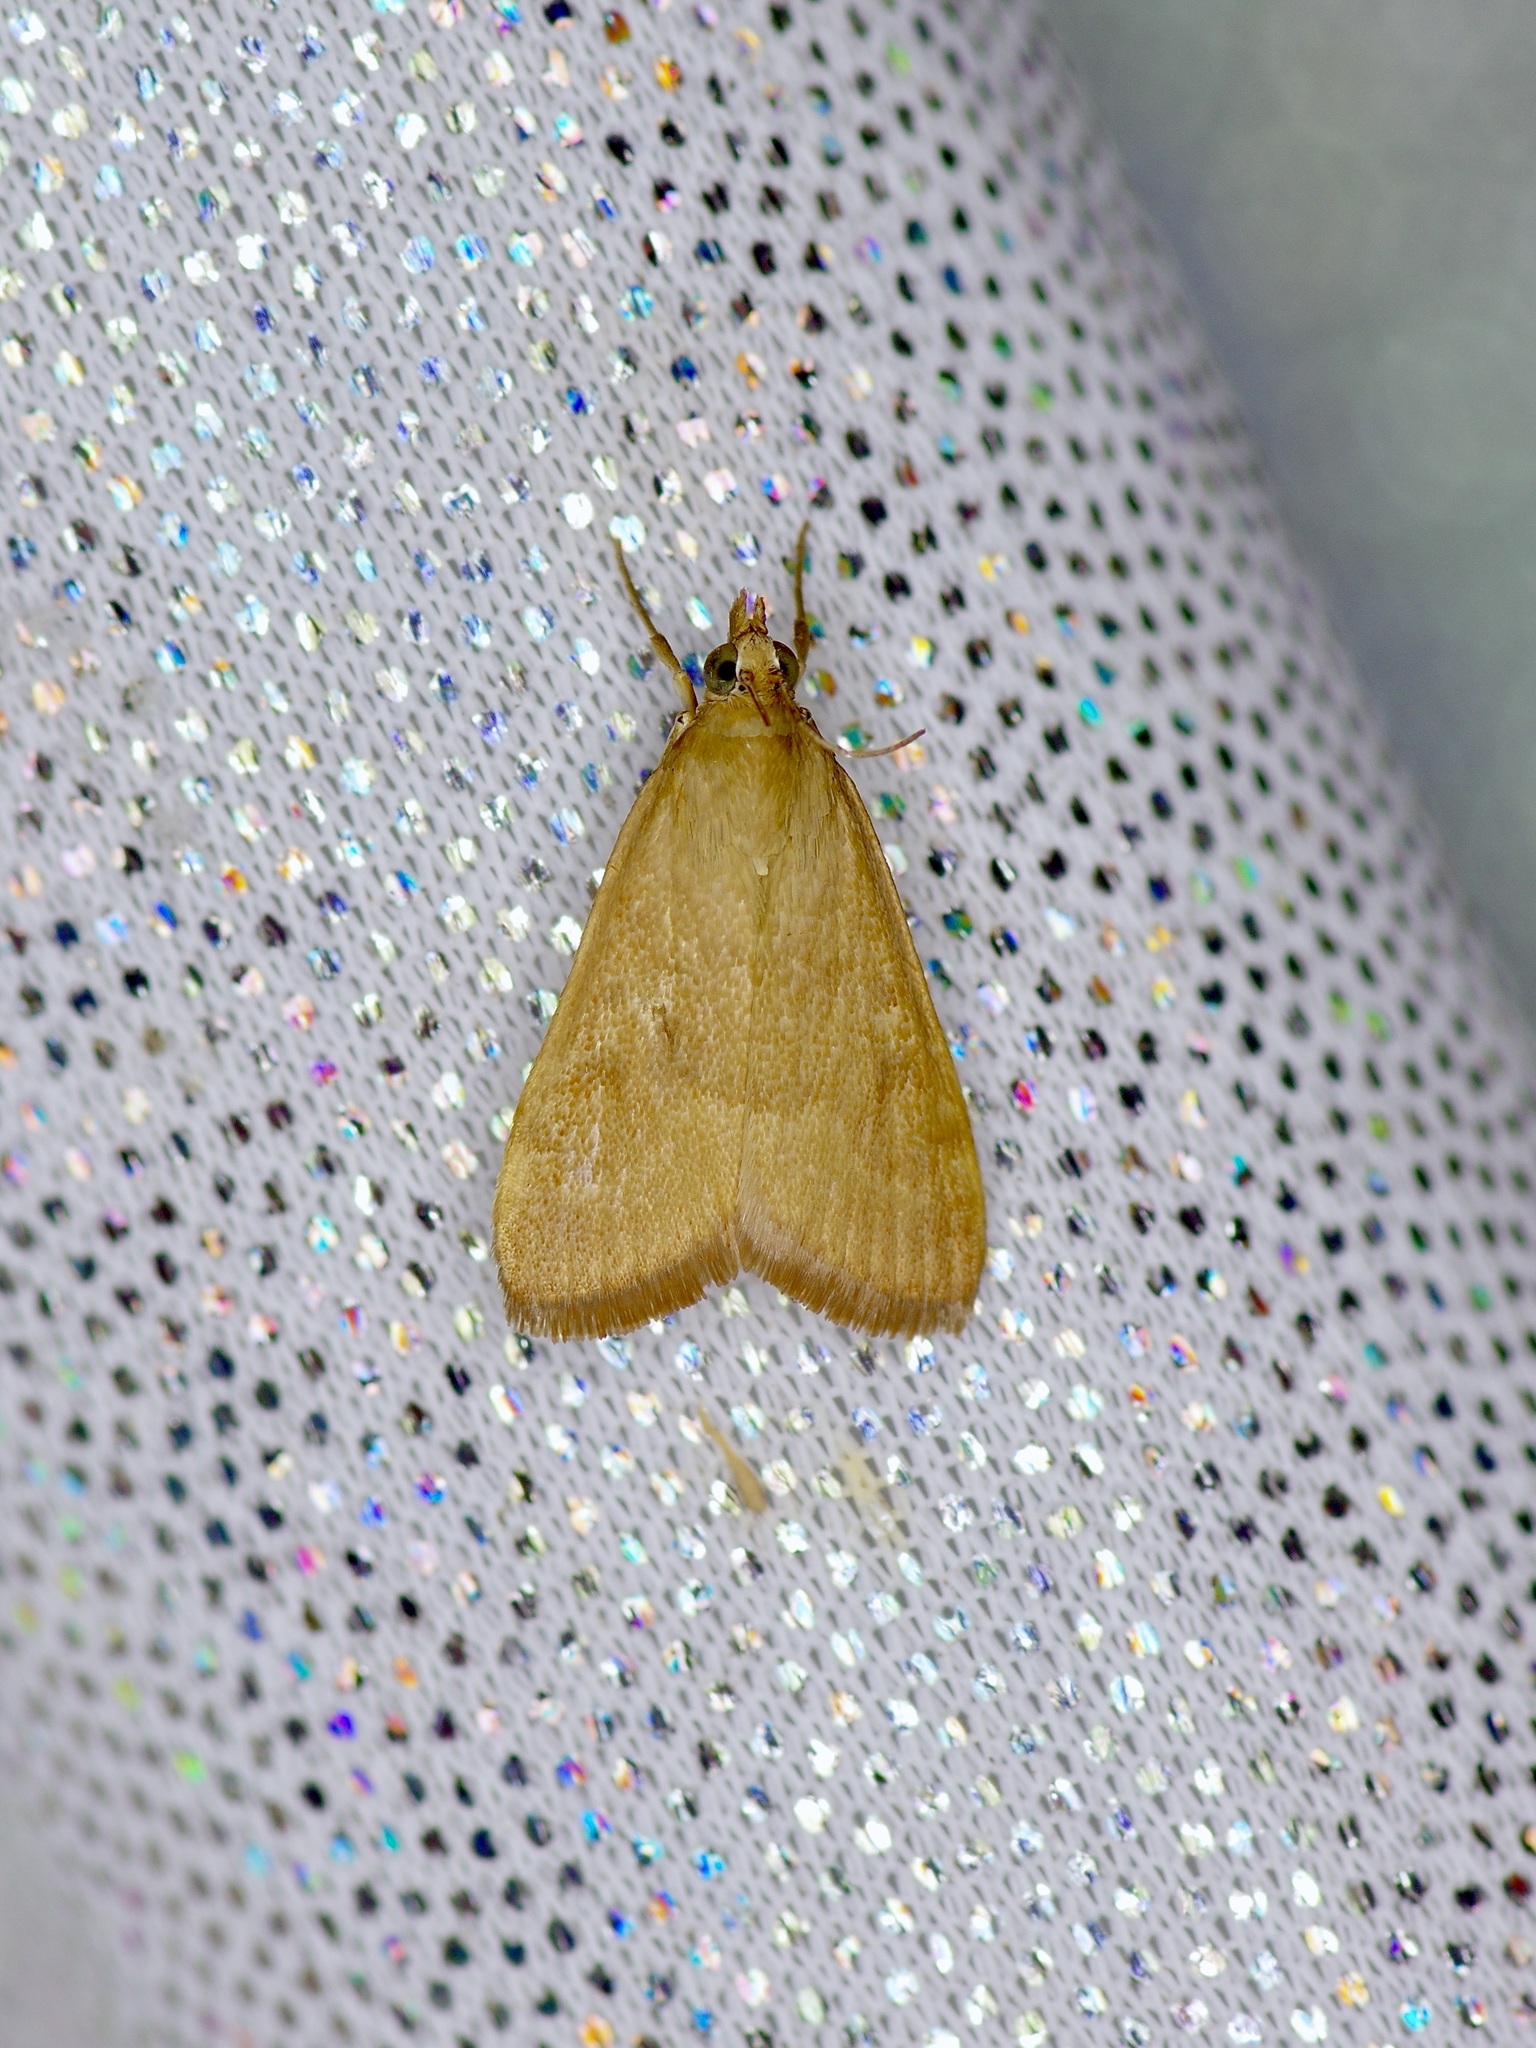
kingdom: Animalia
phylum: Arthropoda
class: Insecta
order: Lepidoptera
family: Crambidae
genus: Achyra
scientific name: Achyra rantalis
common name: Garden webworm
